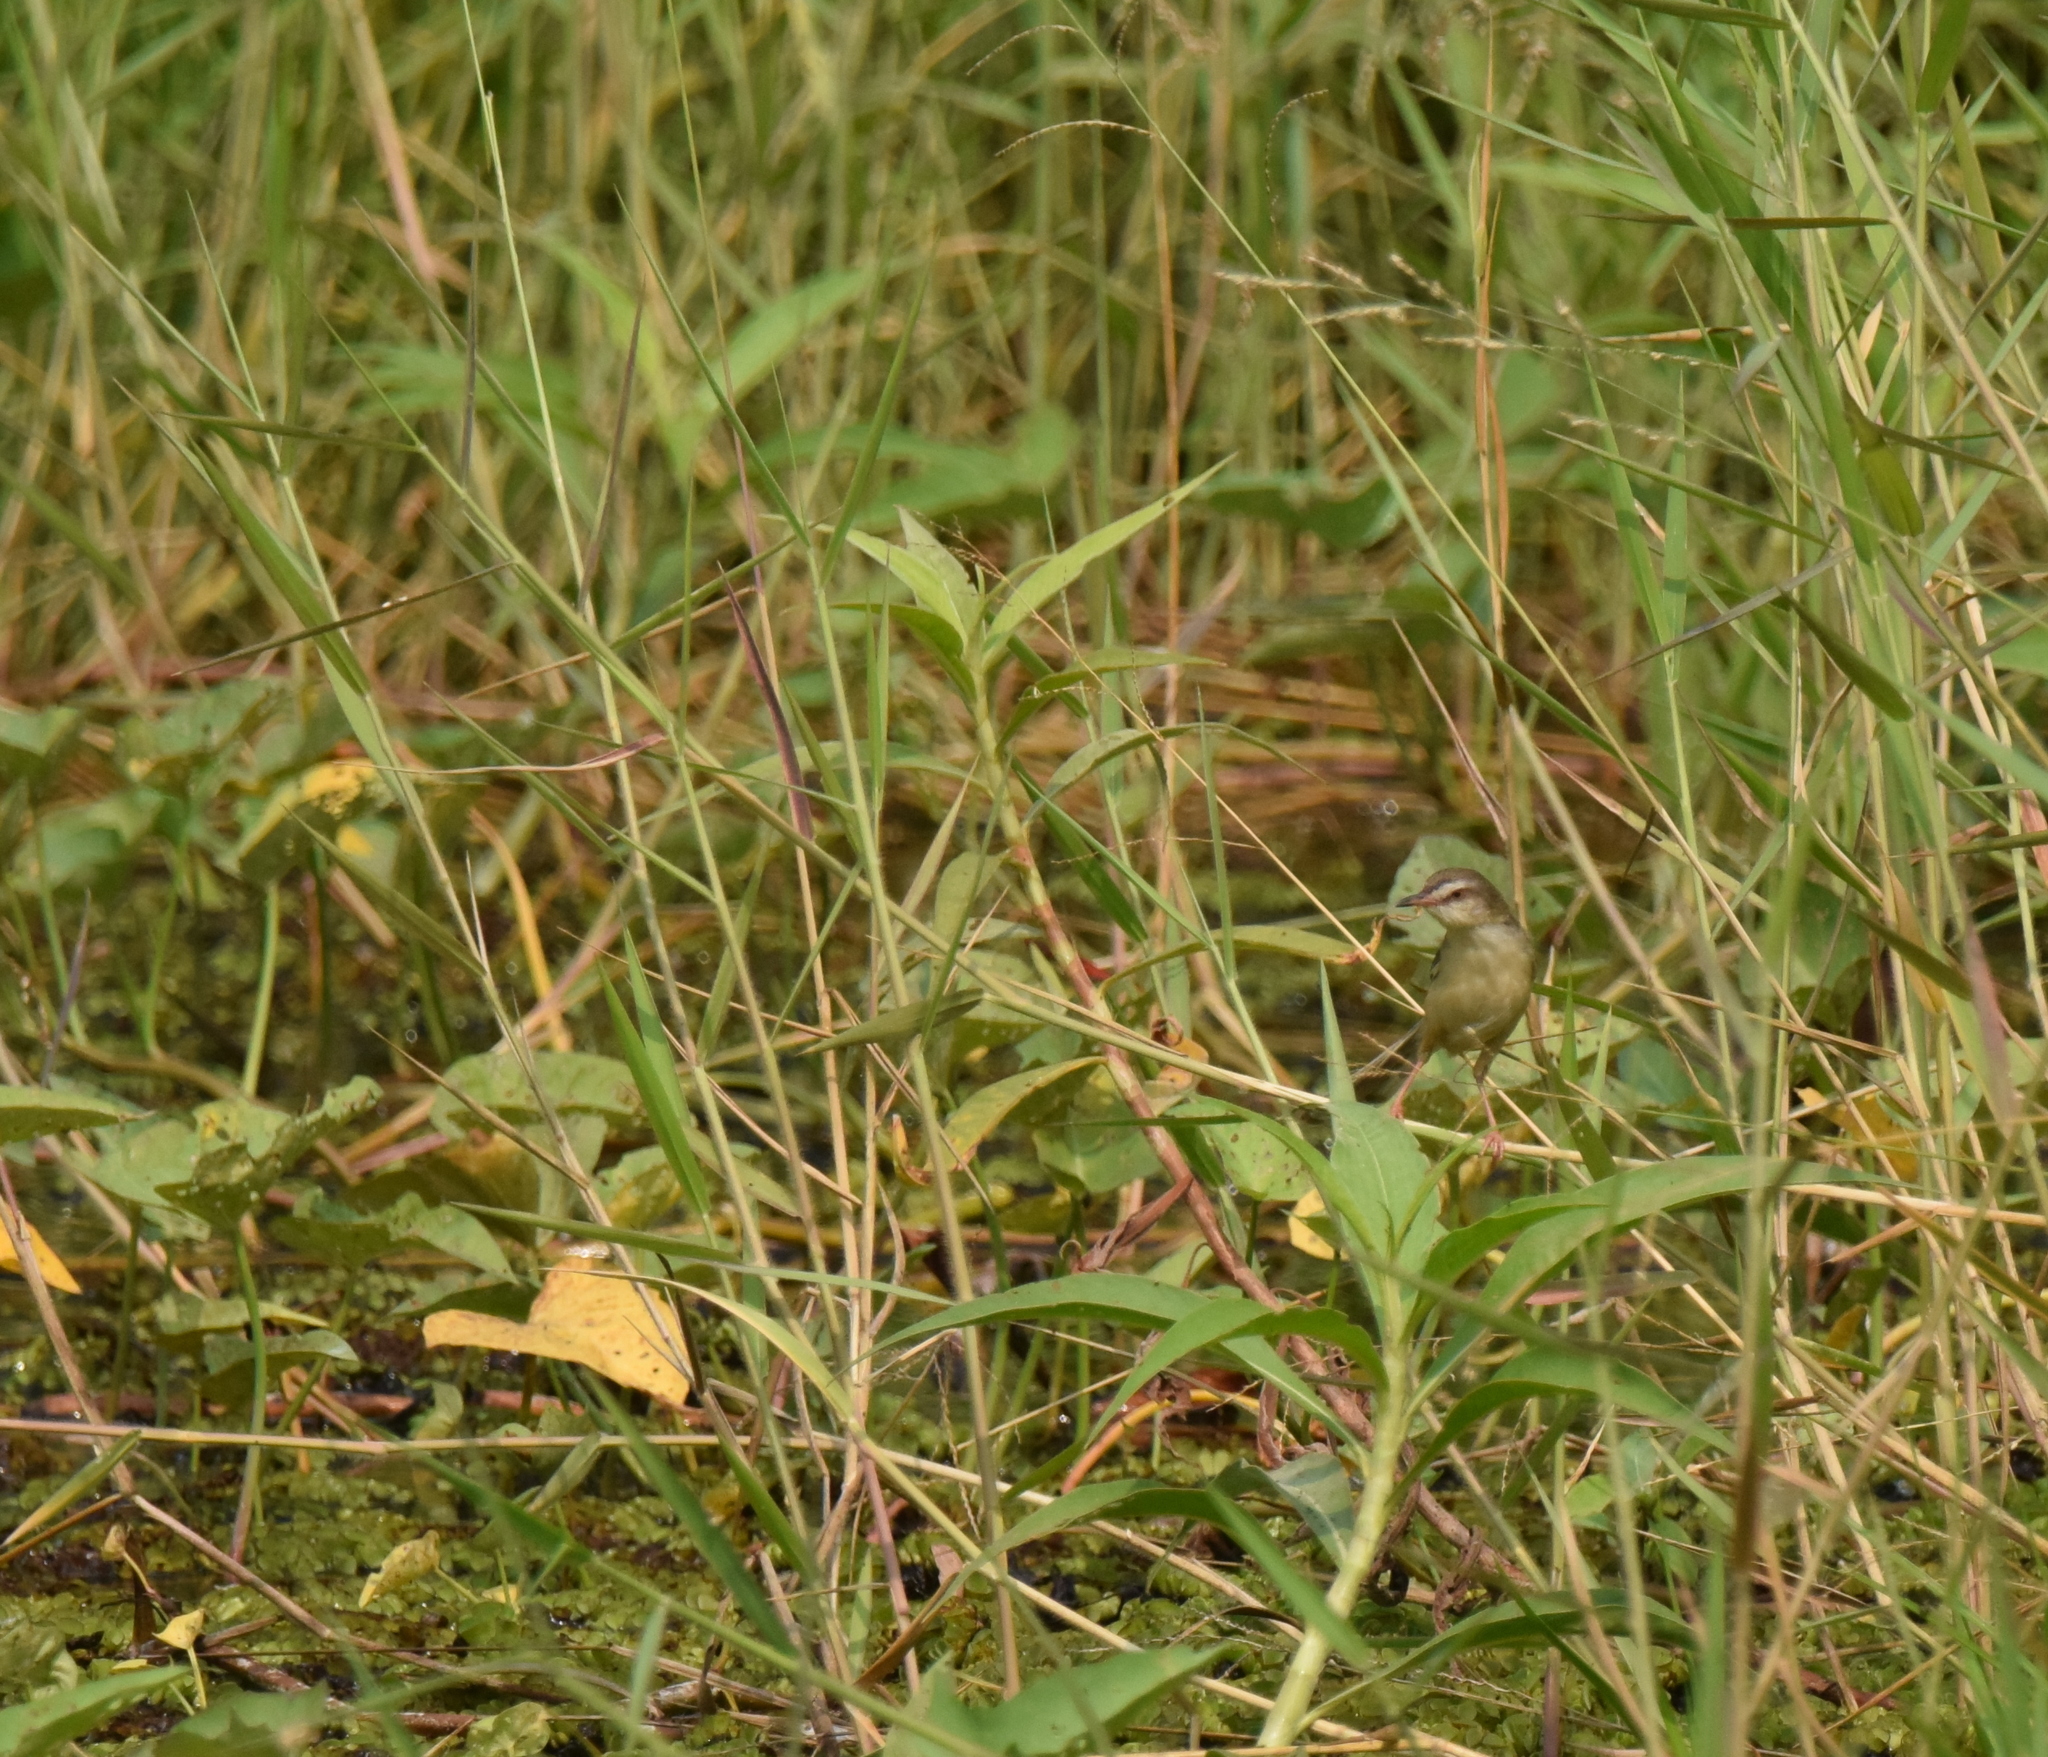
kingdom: Animalia
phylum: Chordata
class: Aves
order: Passeriformes
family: Cisticolidae
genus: Prinia
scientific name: Prinia inornata
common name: Plain prinia
